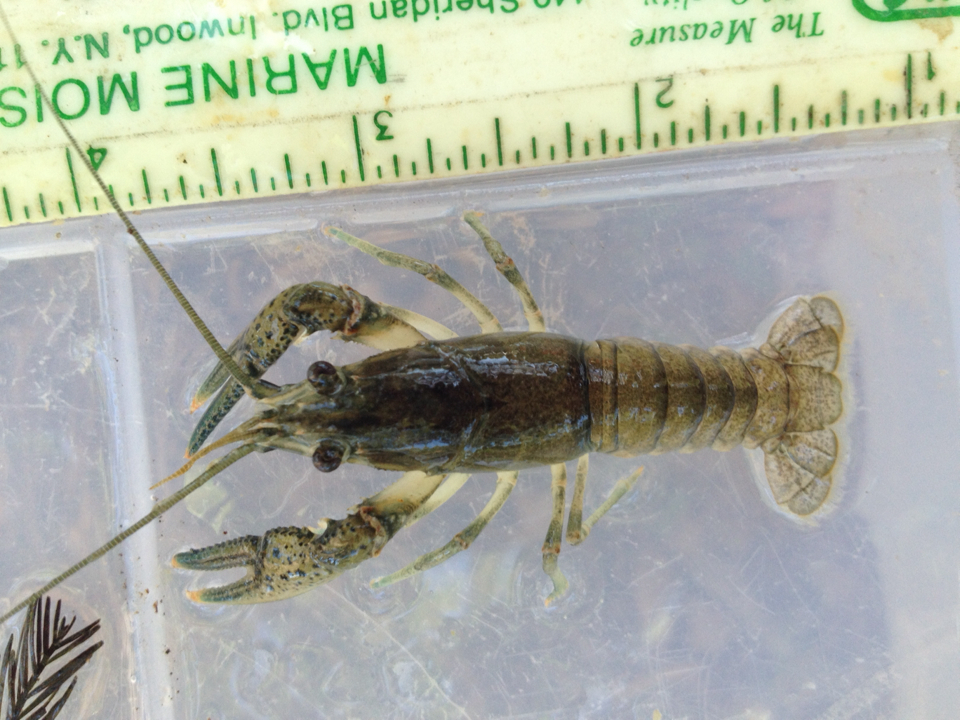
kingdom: Animalia
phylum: Arthropoda
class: Malacostraca
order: Decapoda
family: Cambaridae
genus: Faxonius
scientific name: Faxonius occidentalis
